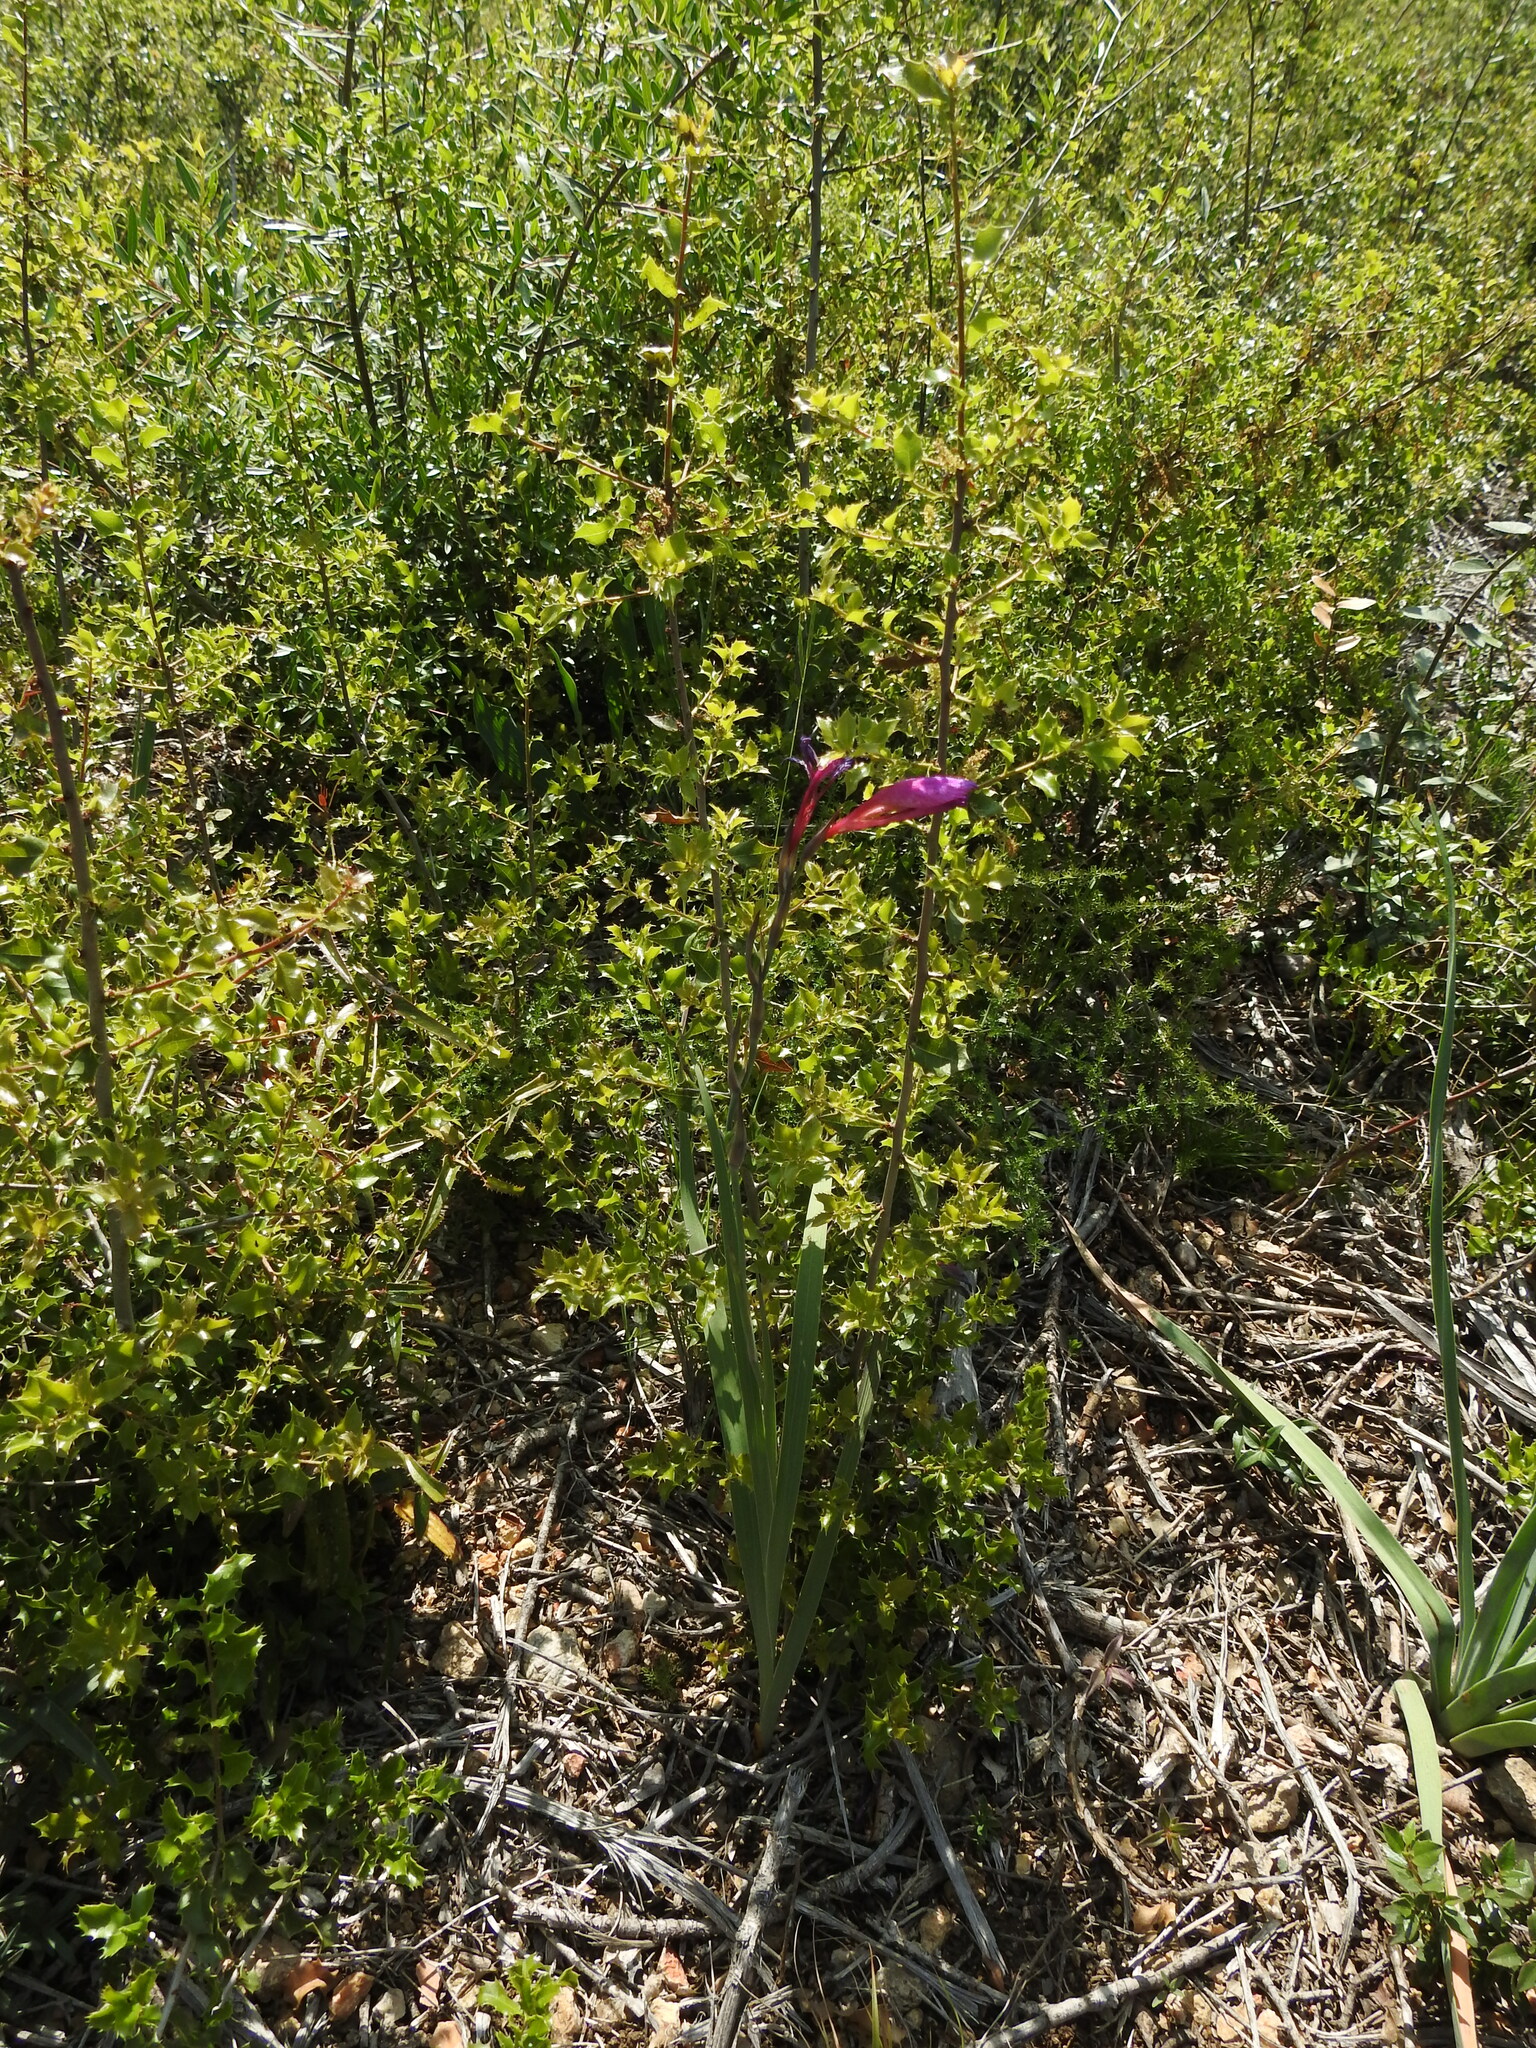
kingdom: Plantae
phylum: Tracheophyta
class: Liliopsida
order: Asparagales
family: Iridaceae
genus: Gladiolus
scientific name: Gladiolus dubius
